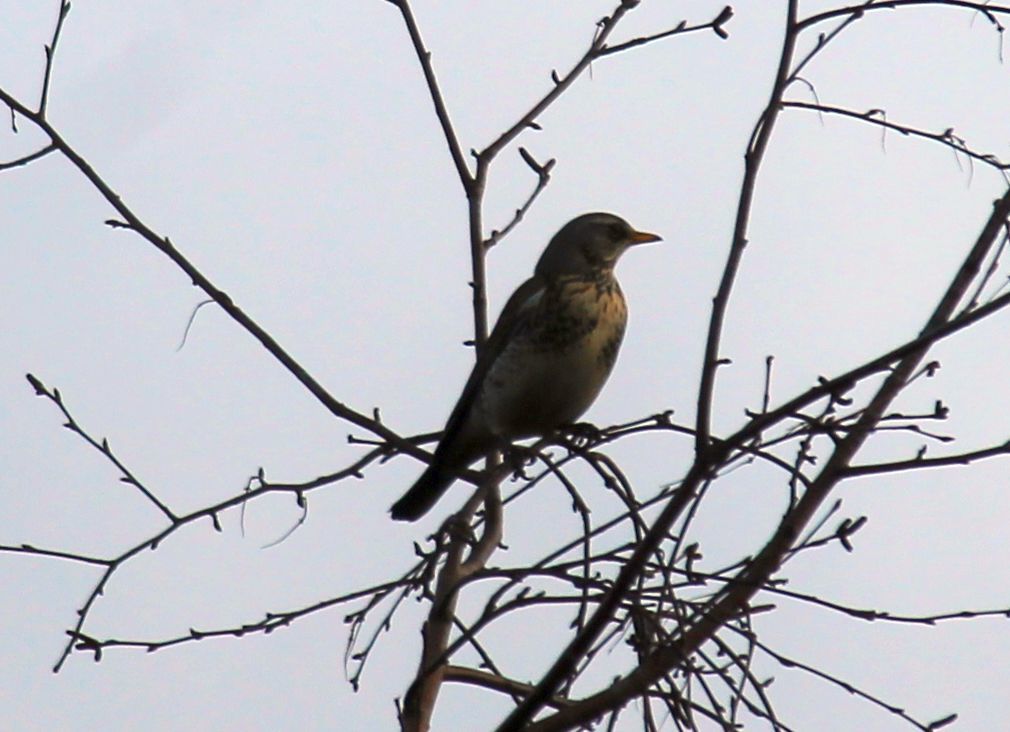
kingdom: Animalia
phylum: Chordata
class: Aves
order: Passeriformes
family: Turdidae
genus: Turdus
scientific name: Turdus pilaris
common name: Fieldfare
